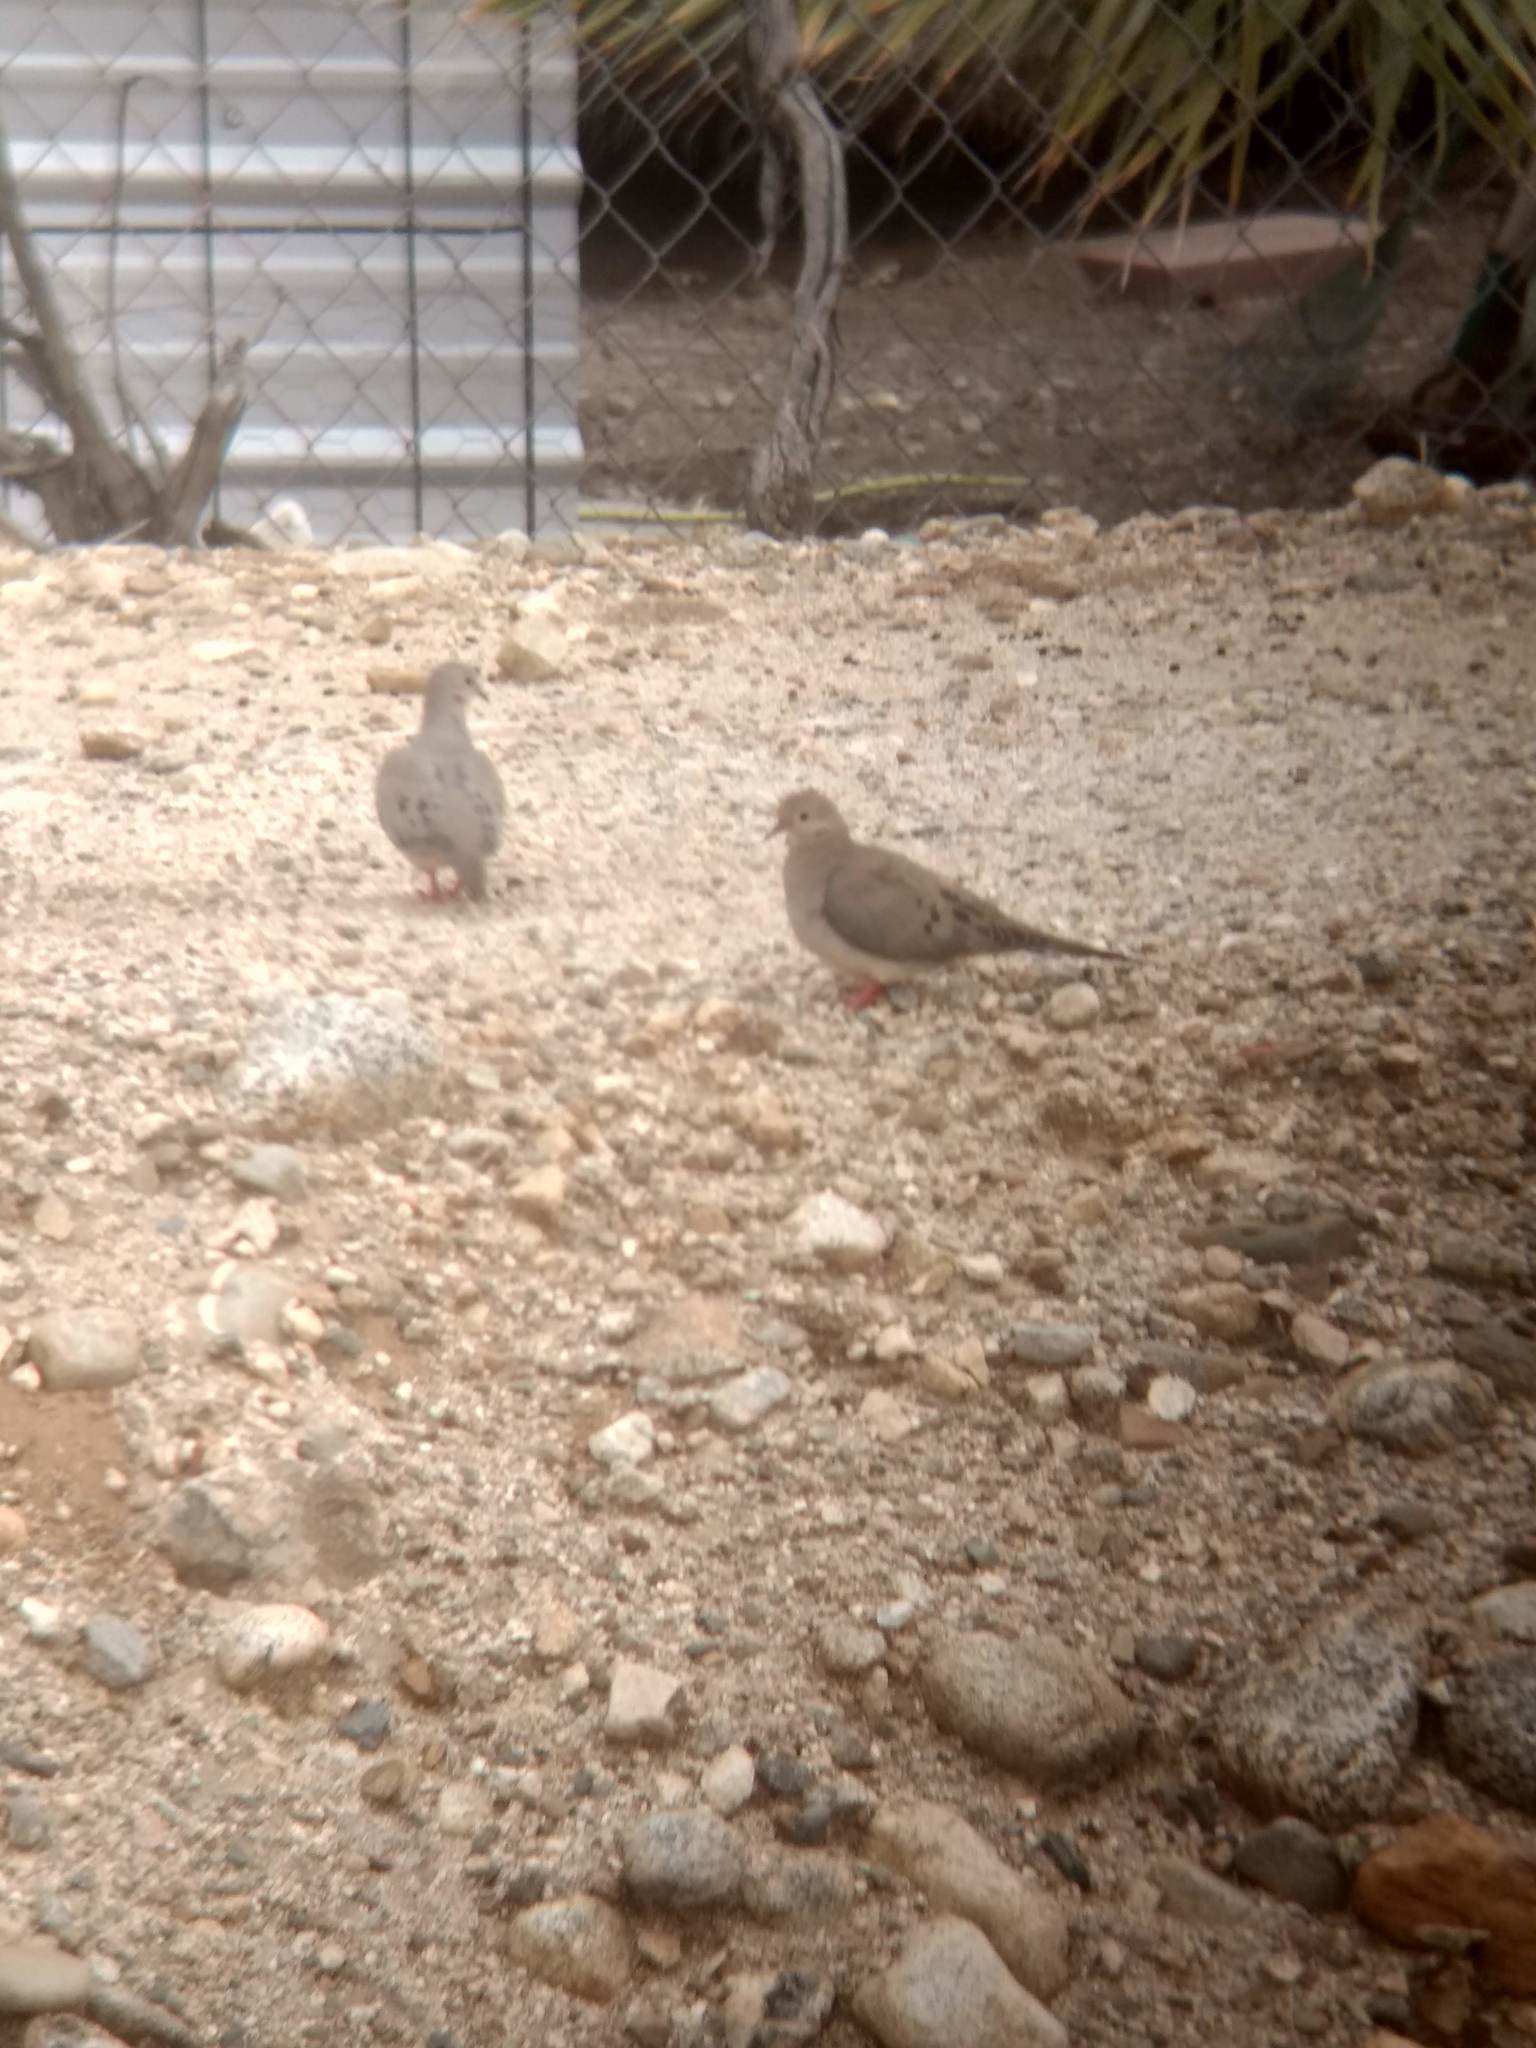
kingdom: Animalia
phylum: Chordata
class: Aves
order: Columbiformes
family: Columbidae
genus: Zenaida
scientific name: Zenaida macroura
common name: Mourning dove
